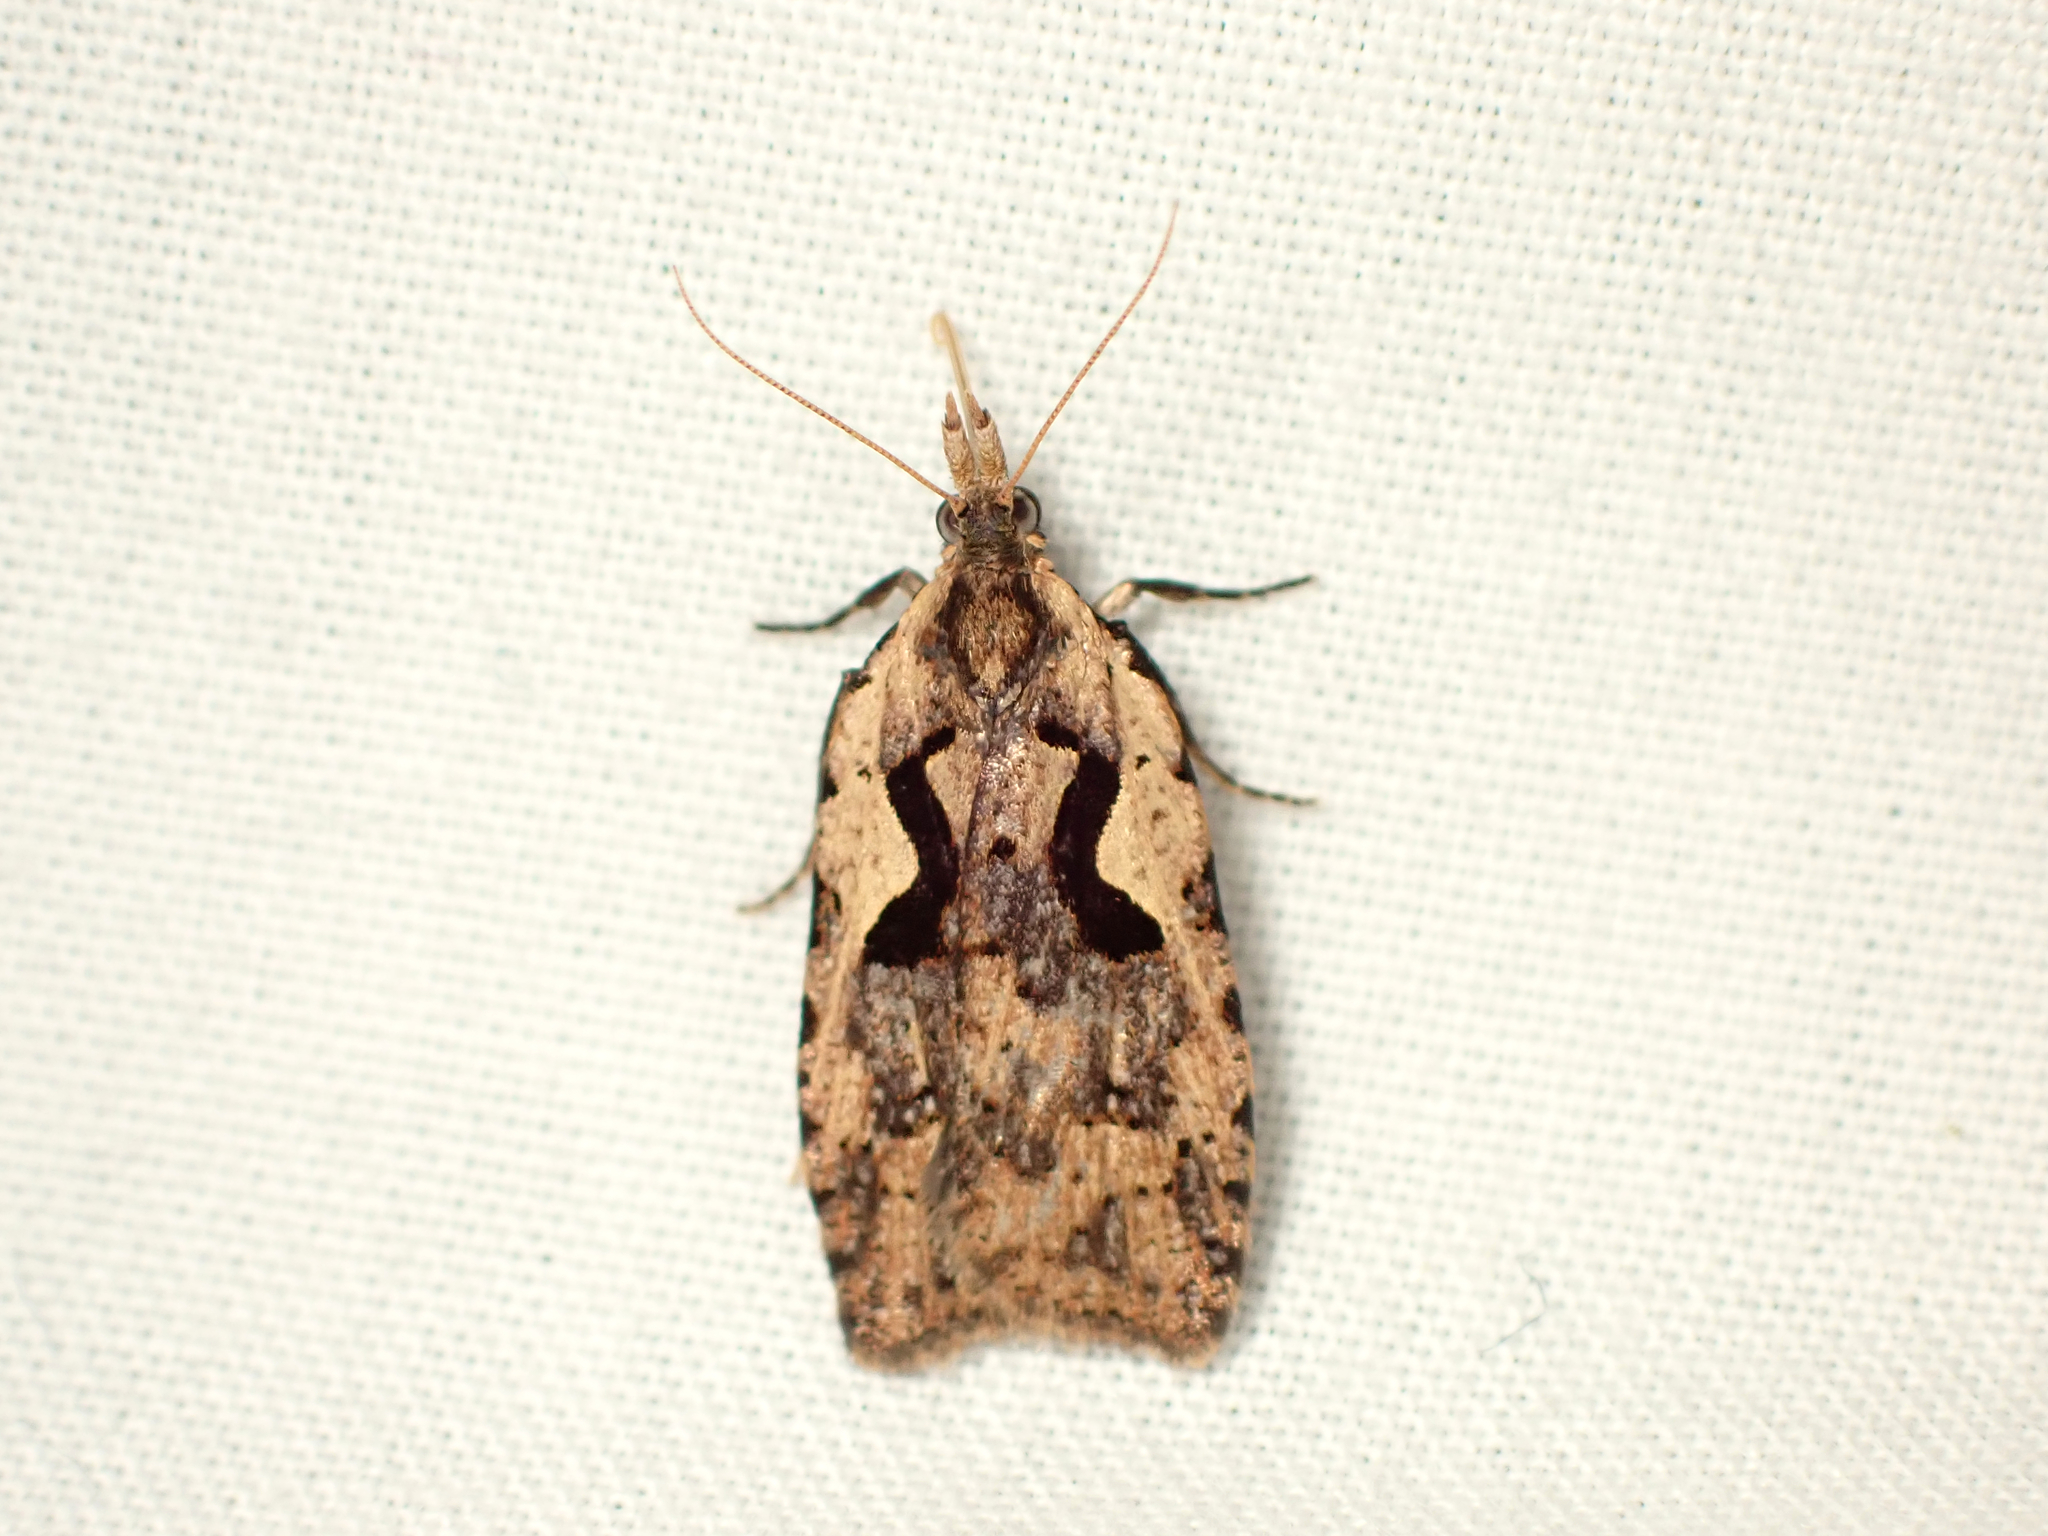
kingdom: Animalia
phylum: Arthropoda
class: Insecta
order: Lepidoptera
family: Tortricidae
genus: Cnephasia
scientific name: Cnephasia jactatana
